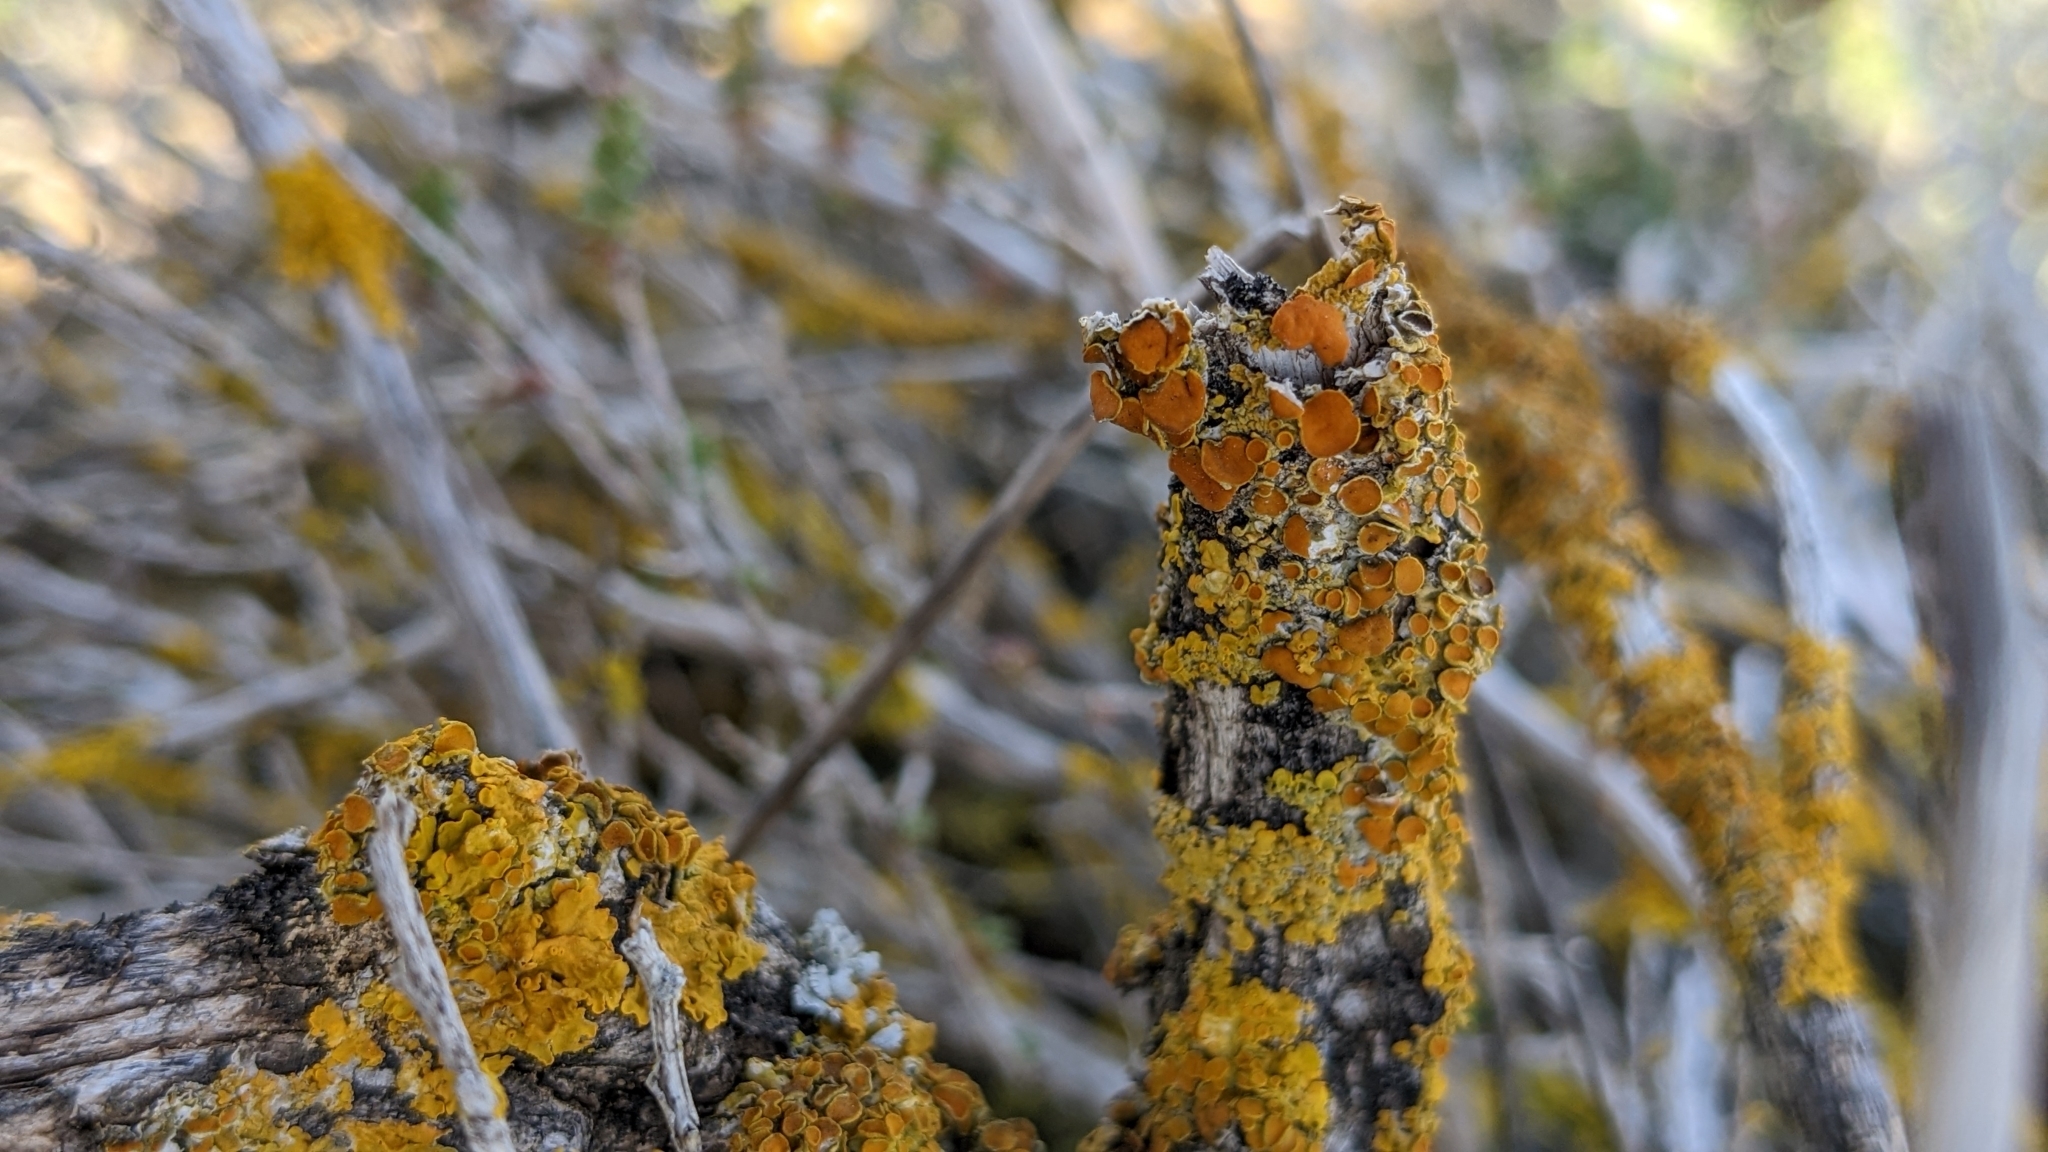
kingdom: Fungi
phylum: Ascomycota
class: Lecanoromycetes
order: Teloschistales
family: Teloschistaceae
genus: Xanthoria
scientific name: Xanthoria parietina
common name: Common orange lichen
